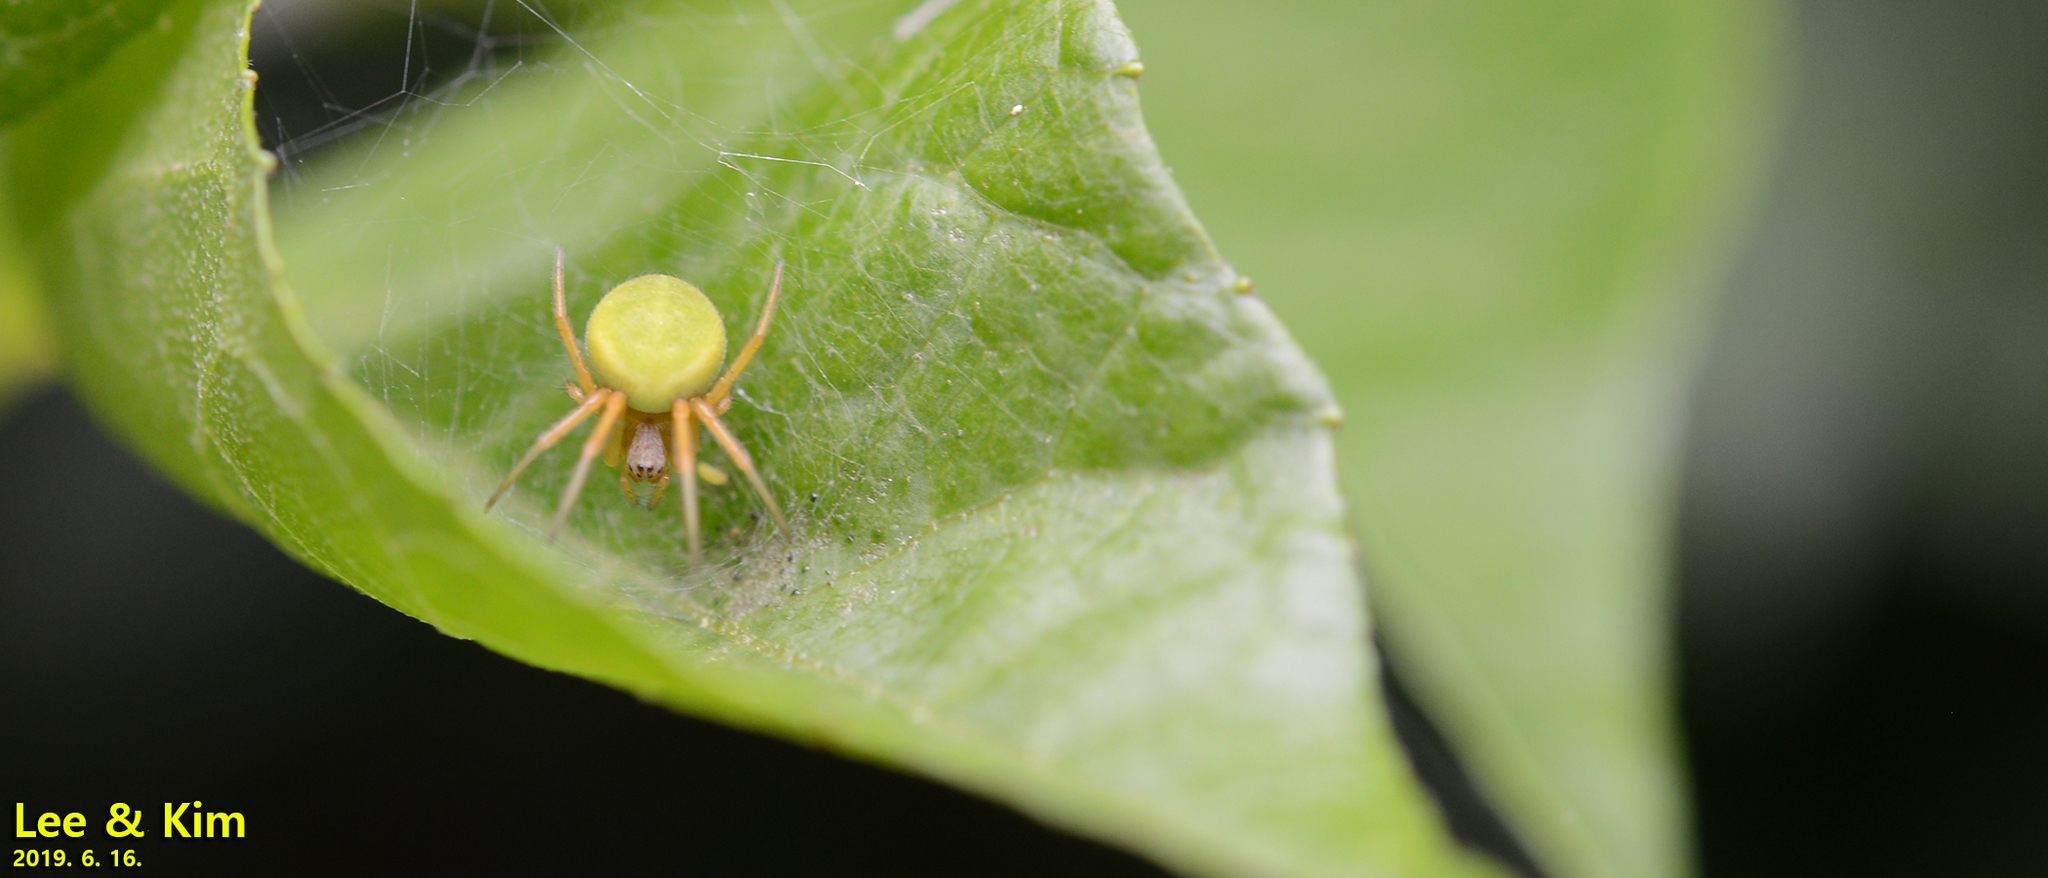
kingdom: Animalia
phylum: Arthropoda
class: Arachnida
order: Araneae
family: Araneidae
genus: Neoscona
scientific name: Neoscona scylloides
